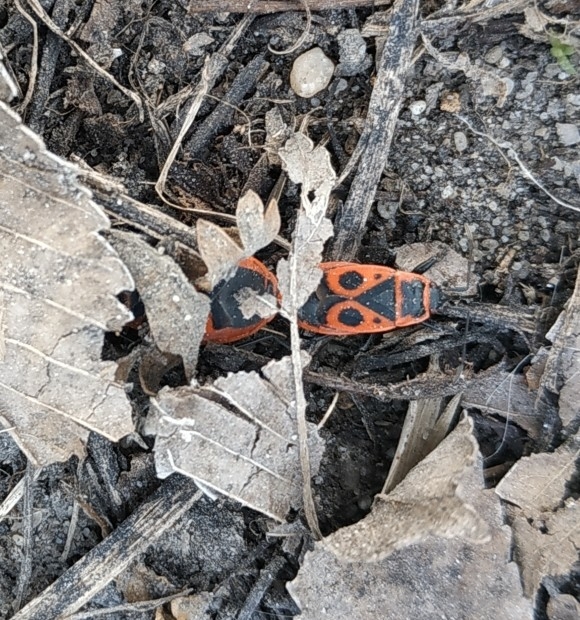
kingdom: Animalia
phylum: Arthropoda
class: Insecta
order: Hemiptera
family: Pyrrhocoridae
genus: Pyrrhocoris
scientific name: Pyrrhocoris apterus
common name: Firebug
